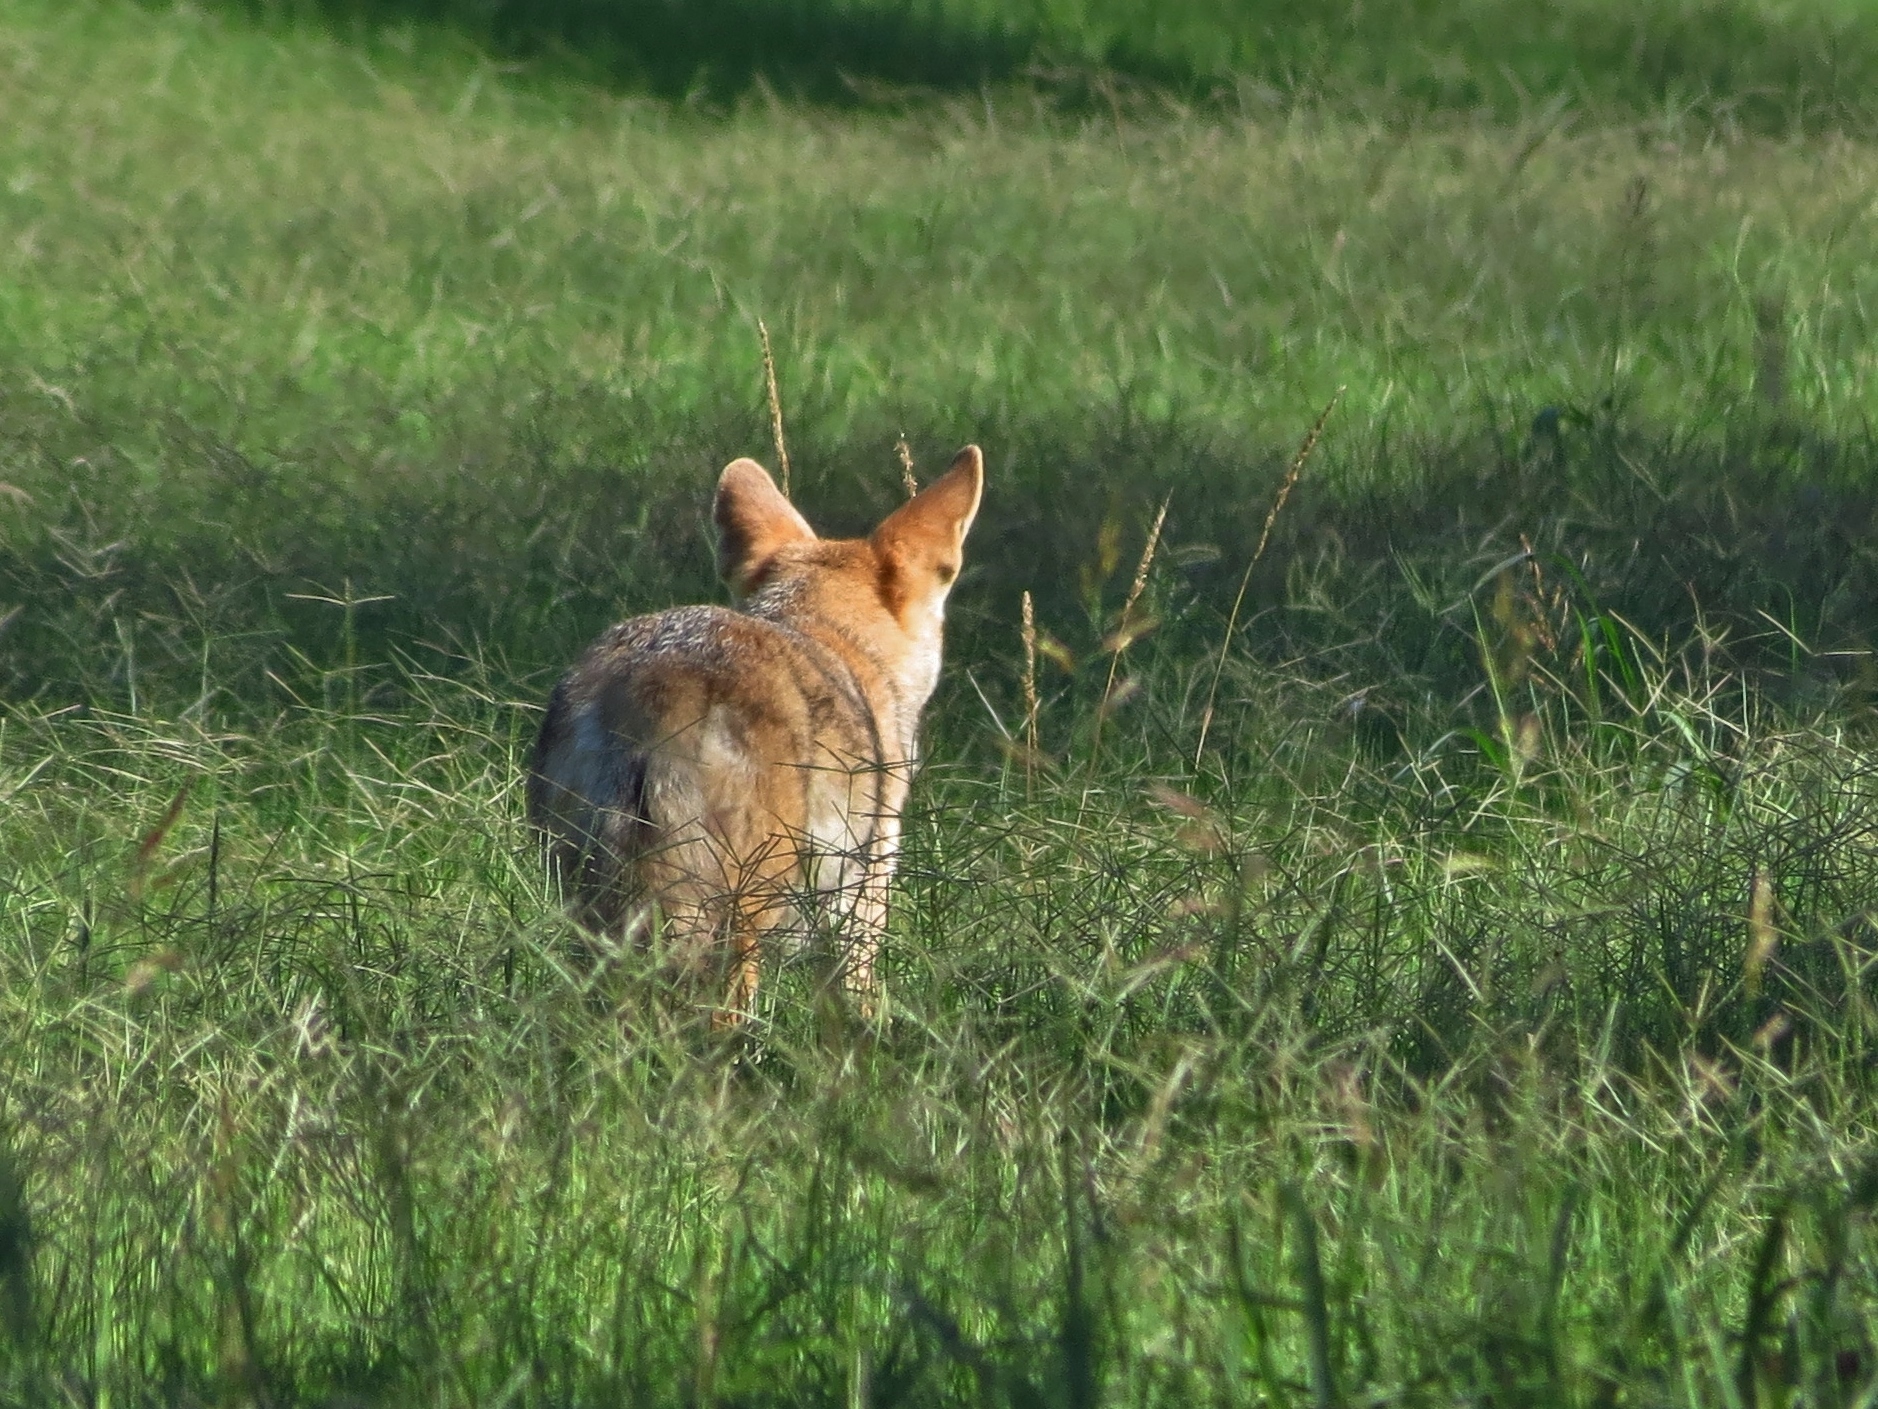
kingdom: Animalia
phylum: Chordata
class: Mammalia
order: Carnivora
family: Canidae
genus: Canis
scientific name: Canis latrans
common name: Coyote
